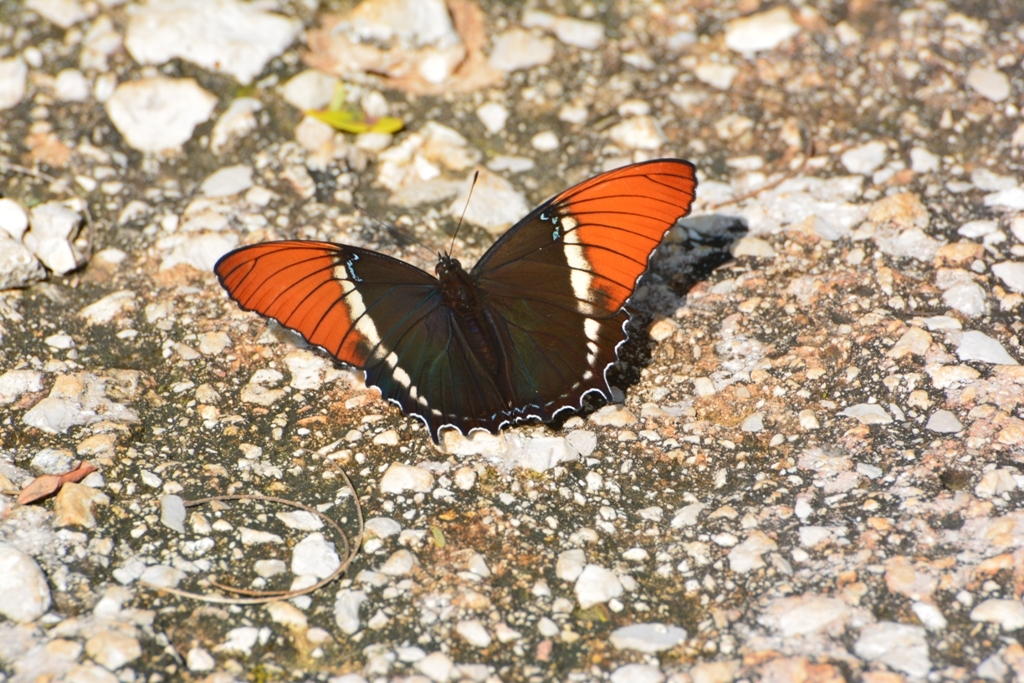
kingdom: Animalia
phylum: Arthropoda
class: Insecta
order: Lepidoptera
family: Nymphalidae
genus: Siproeta
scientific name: Siproeta epaphus
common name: Rusty-tipped page
